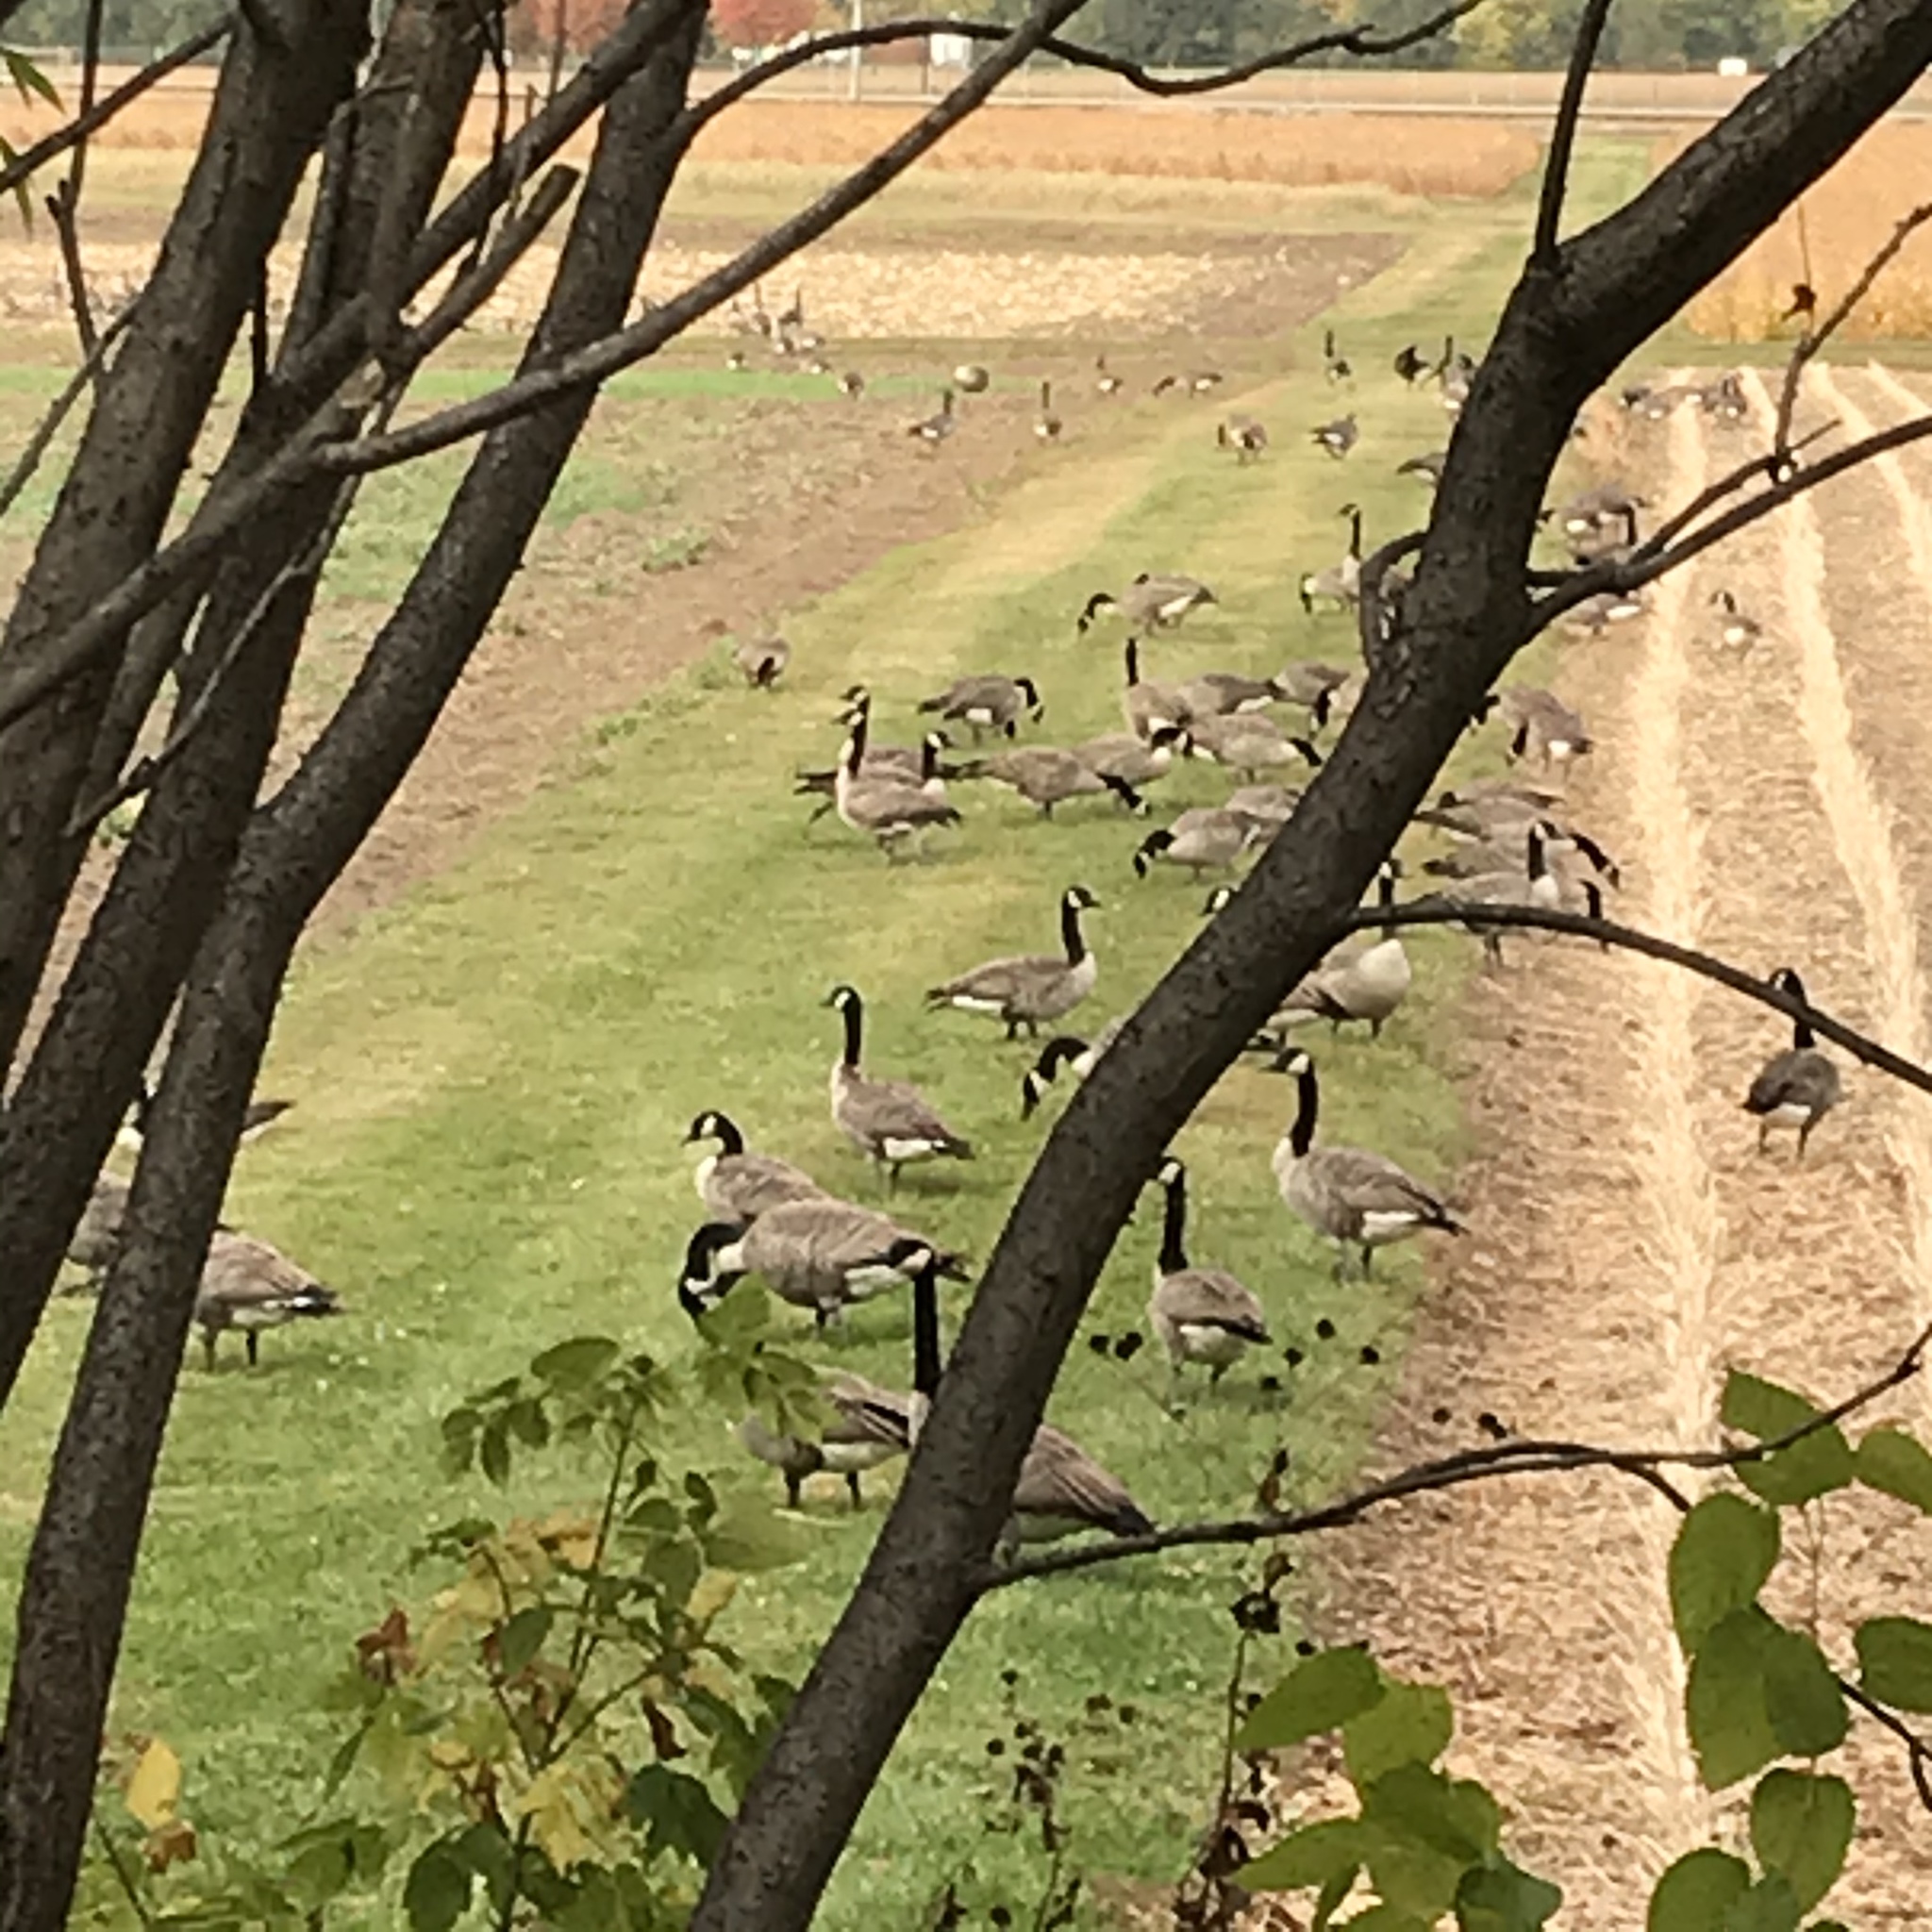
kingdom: Animalia
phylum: Chordata
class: Aves
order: Anseriformes
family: Anatidae
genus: Branta
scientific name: Branta canadensis
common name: Canada goose
